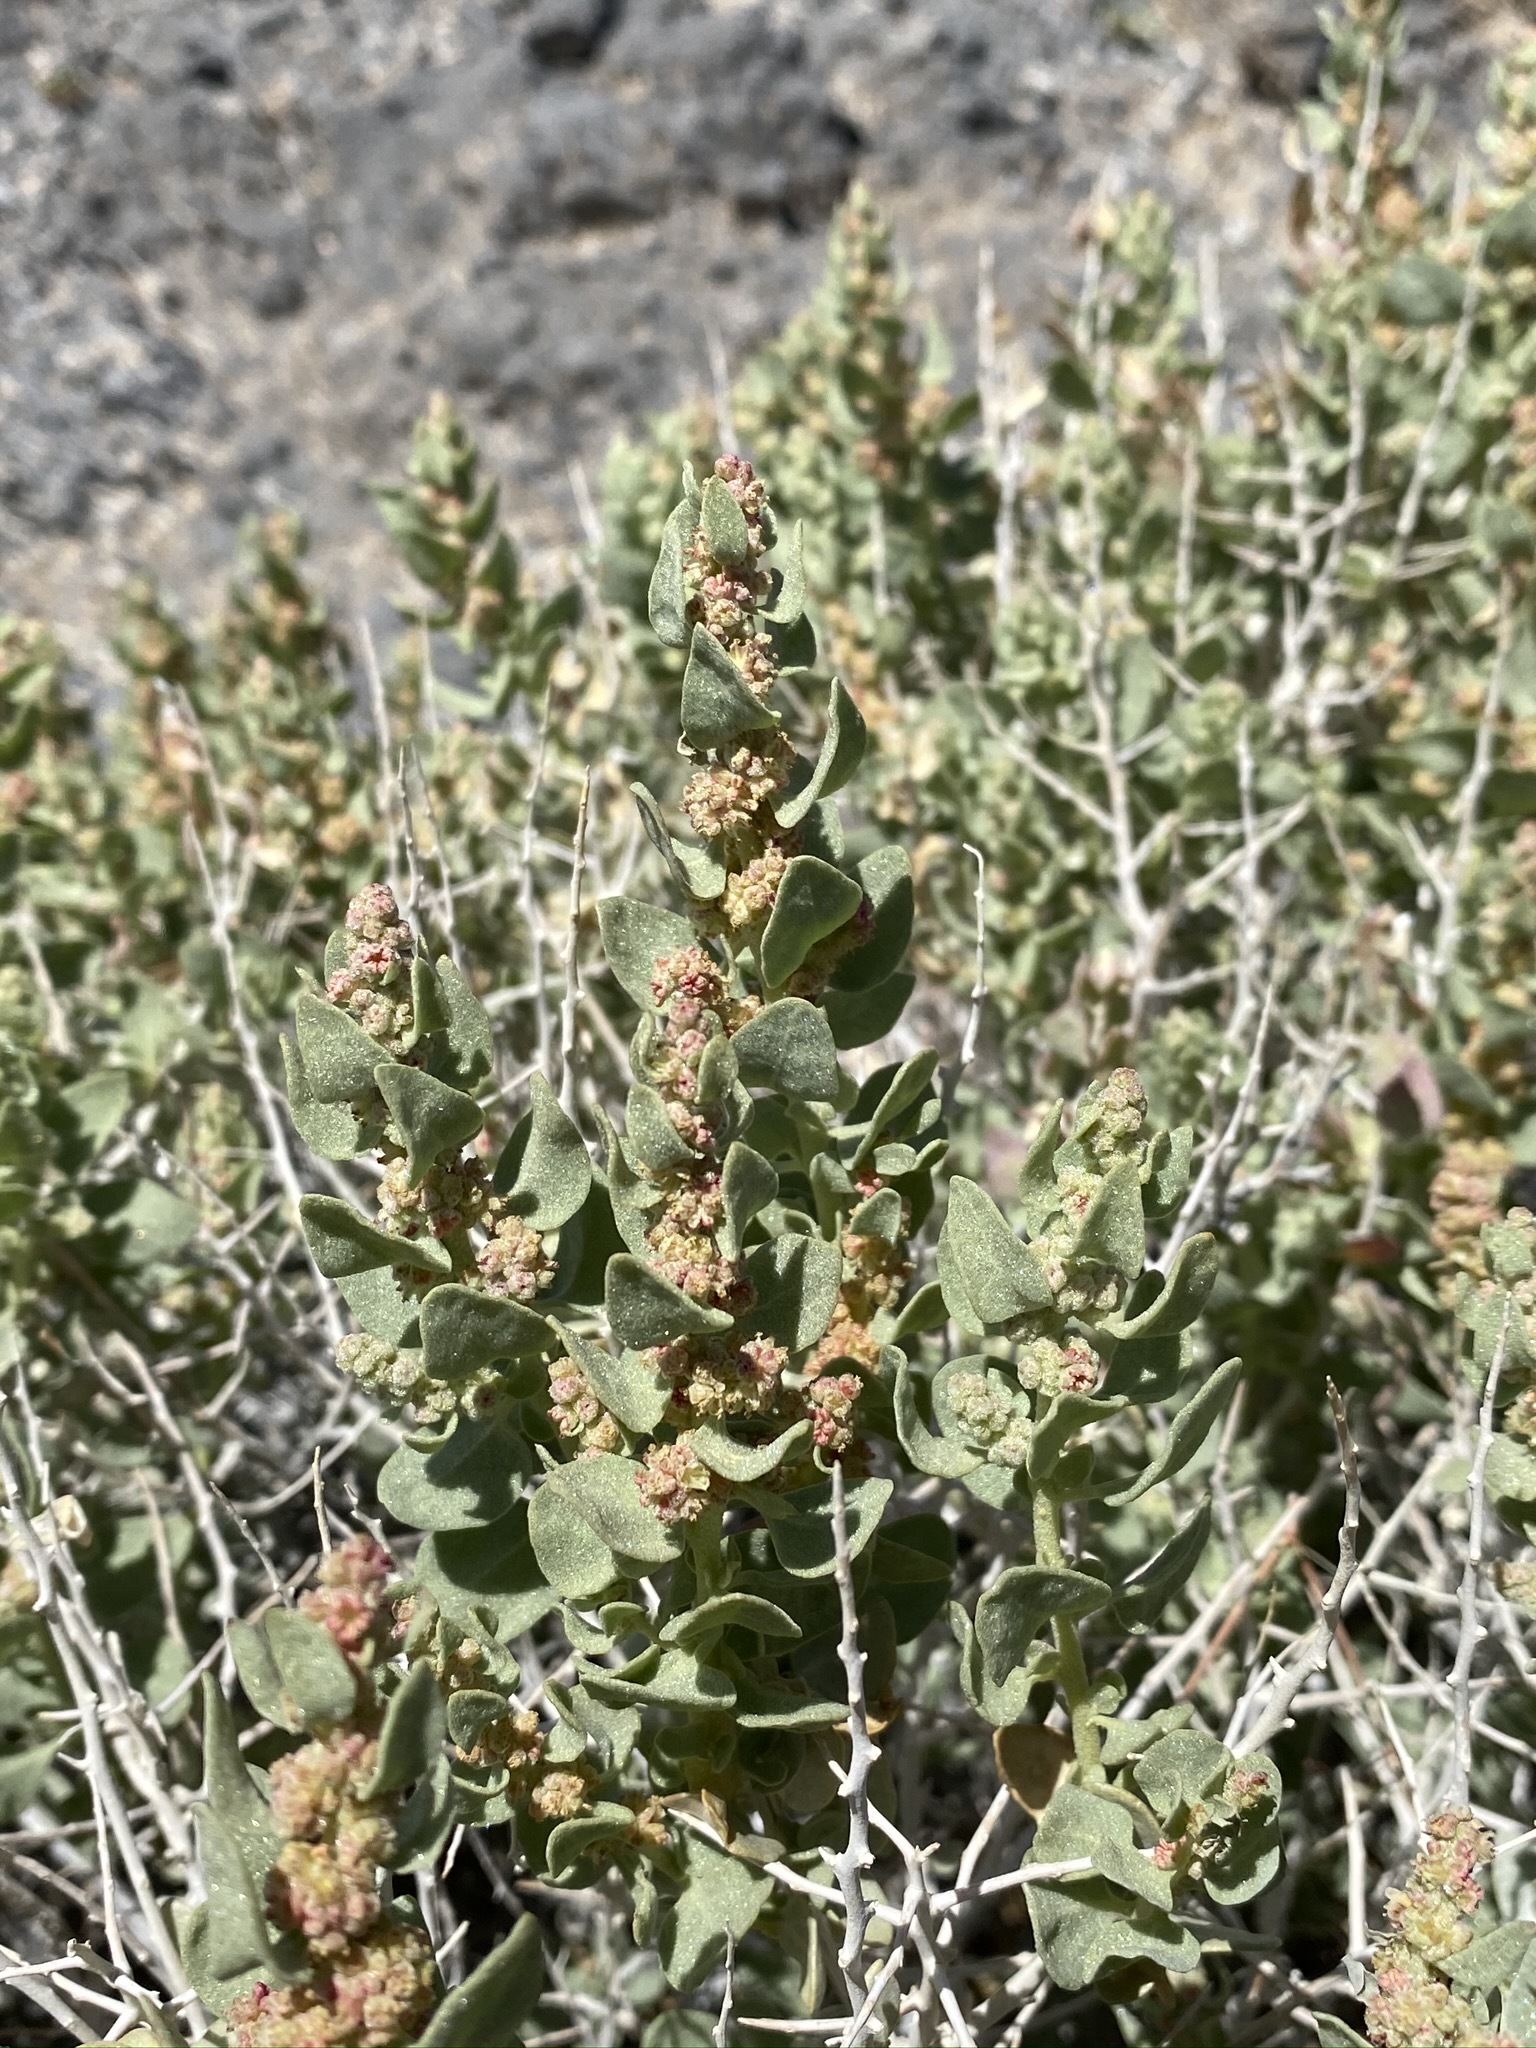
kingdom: Plantae
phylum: Tracheophyta
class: Magnoliopsida
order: Caryophyllales
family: Amaranthaceae
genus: Atriplex
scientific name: Atriplex confertifolia
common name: Shadscale
